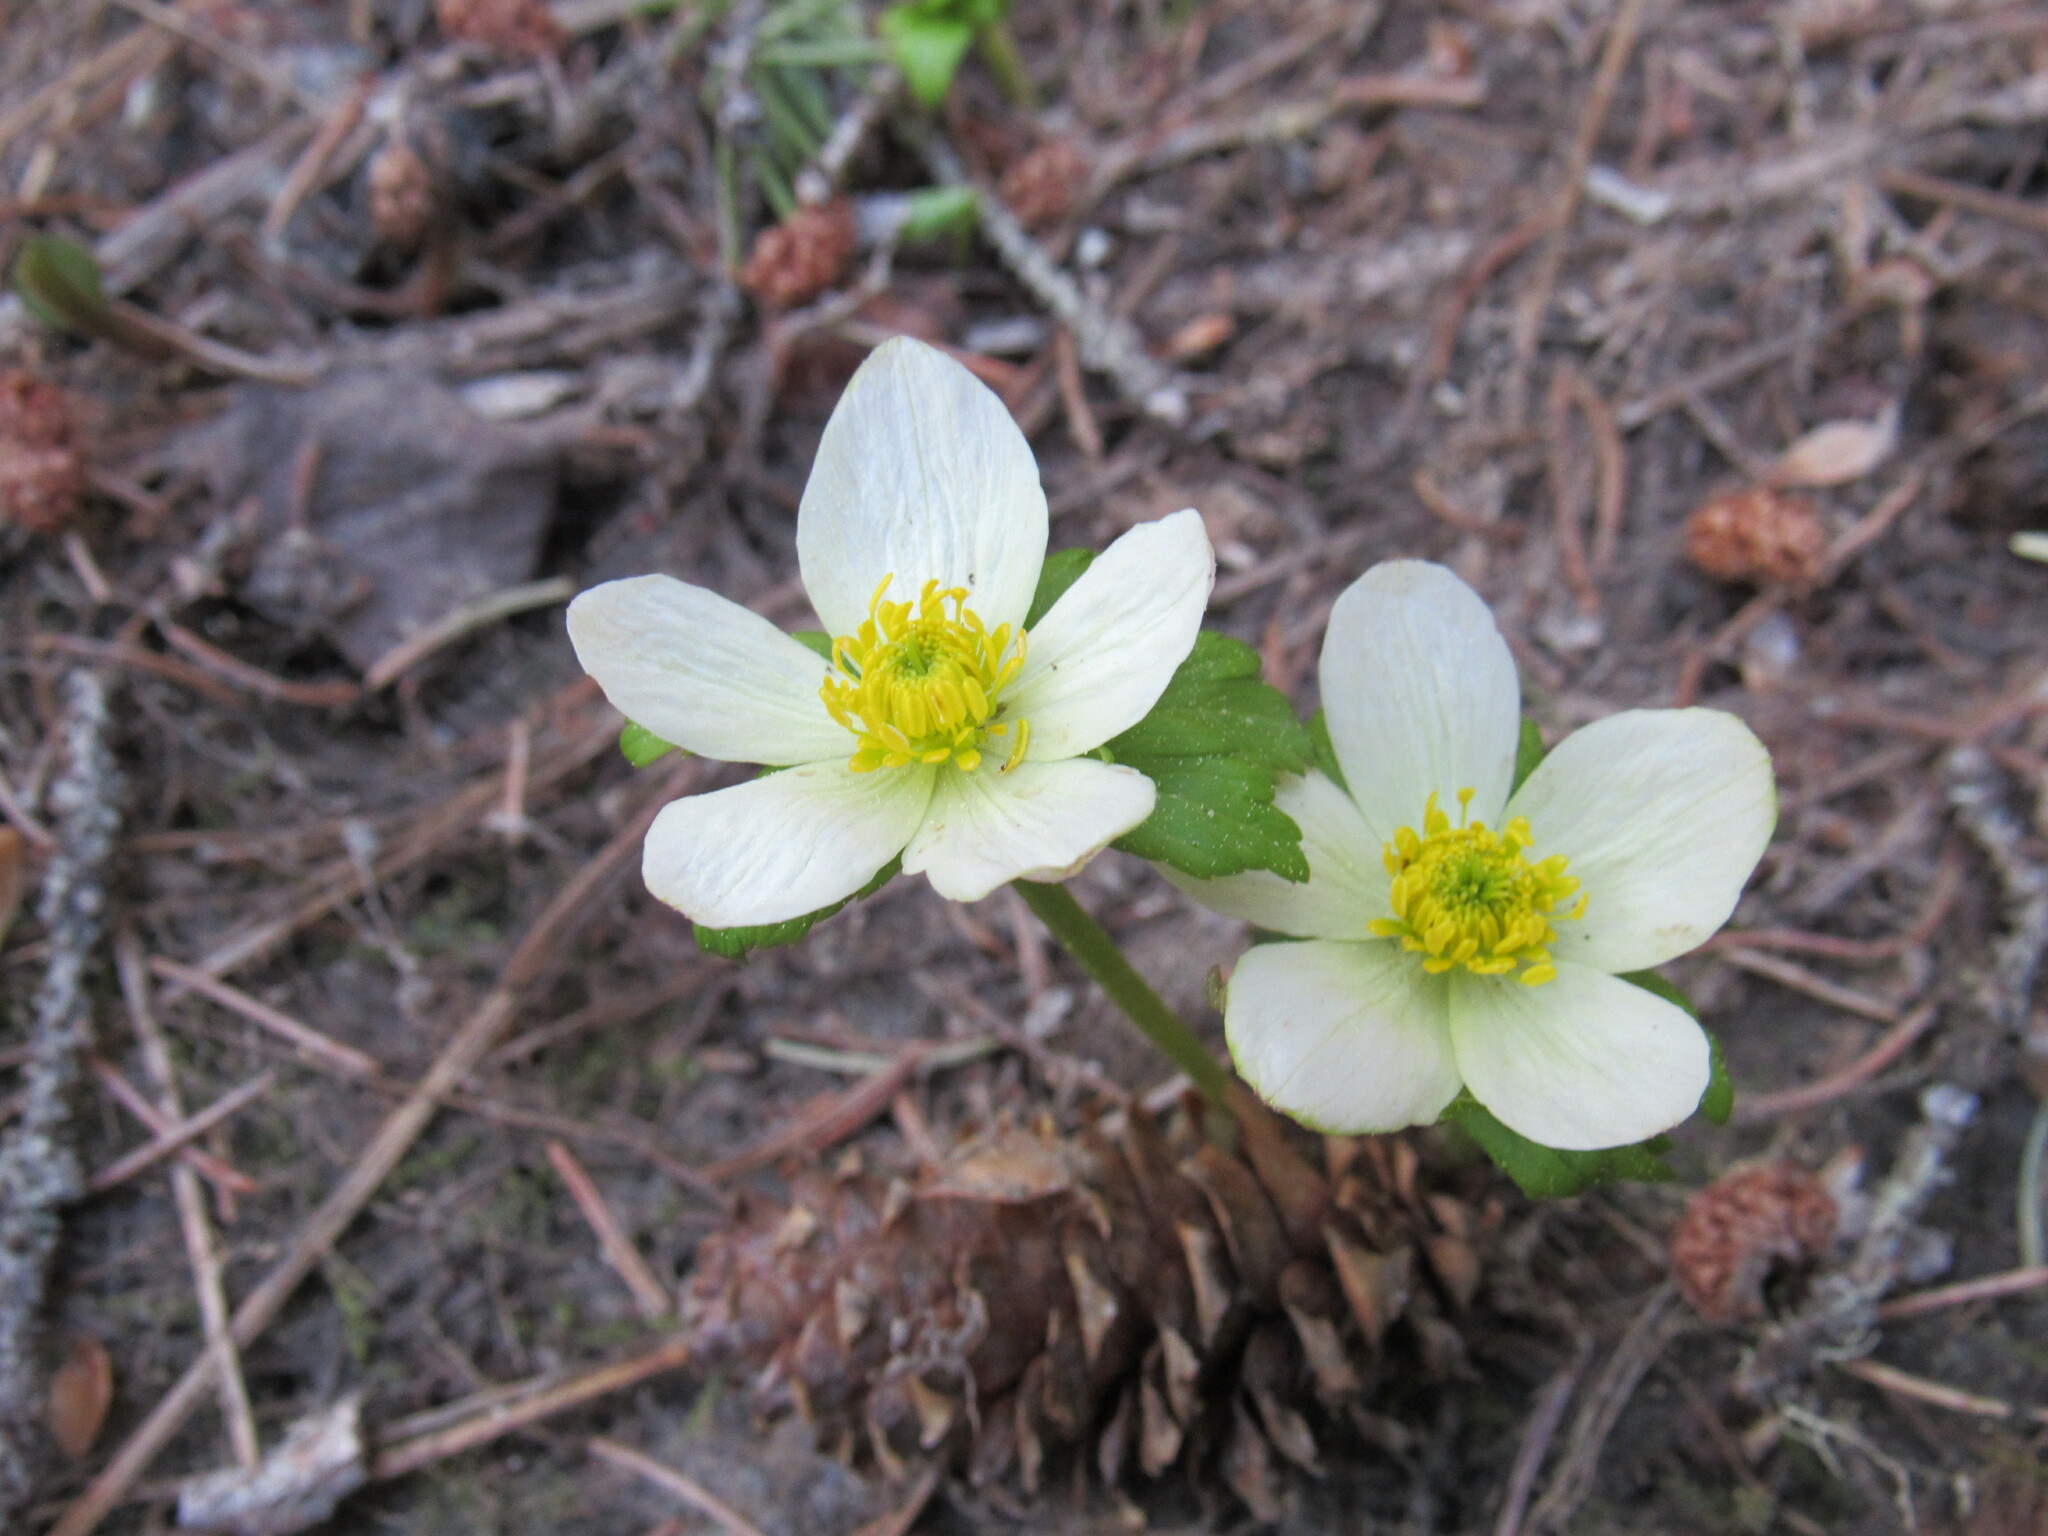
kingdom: Plantae
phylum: Tracheophyta
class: Magnoliopsida
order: Ranunculales
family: Ranunculaceae
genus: Trollius
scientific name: Trollius laxus
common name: American globeflower
